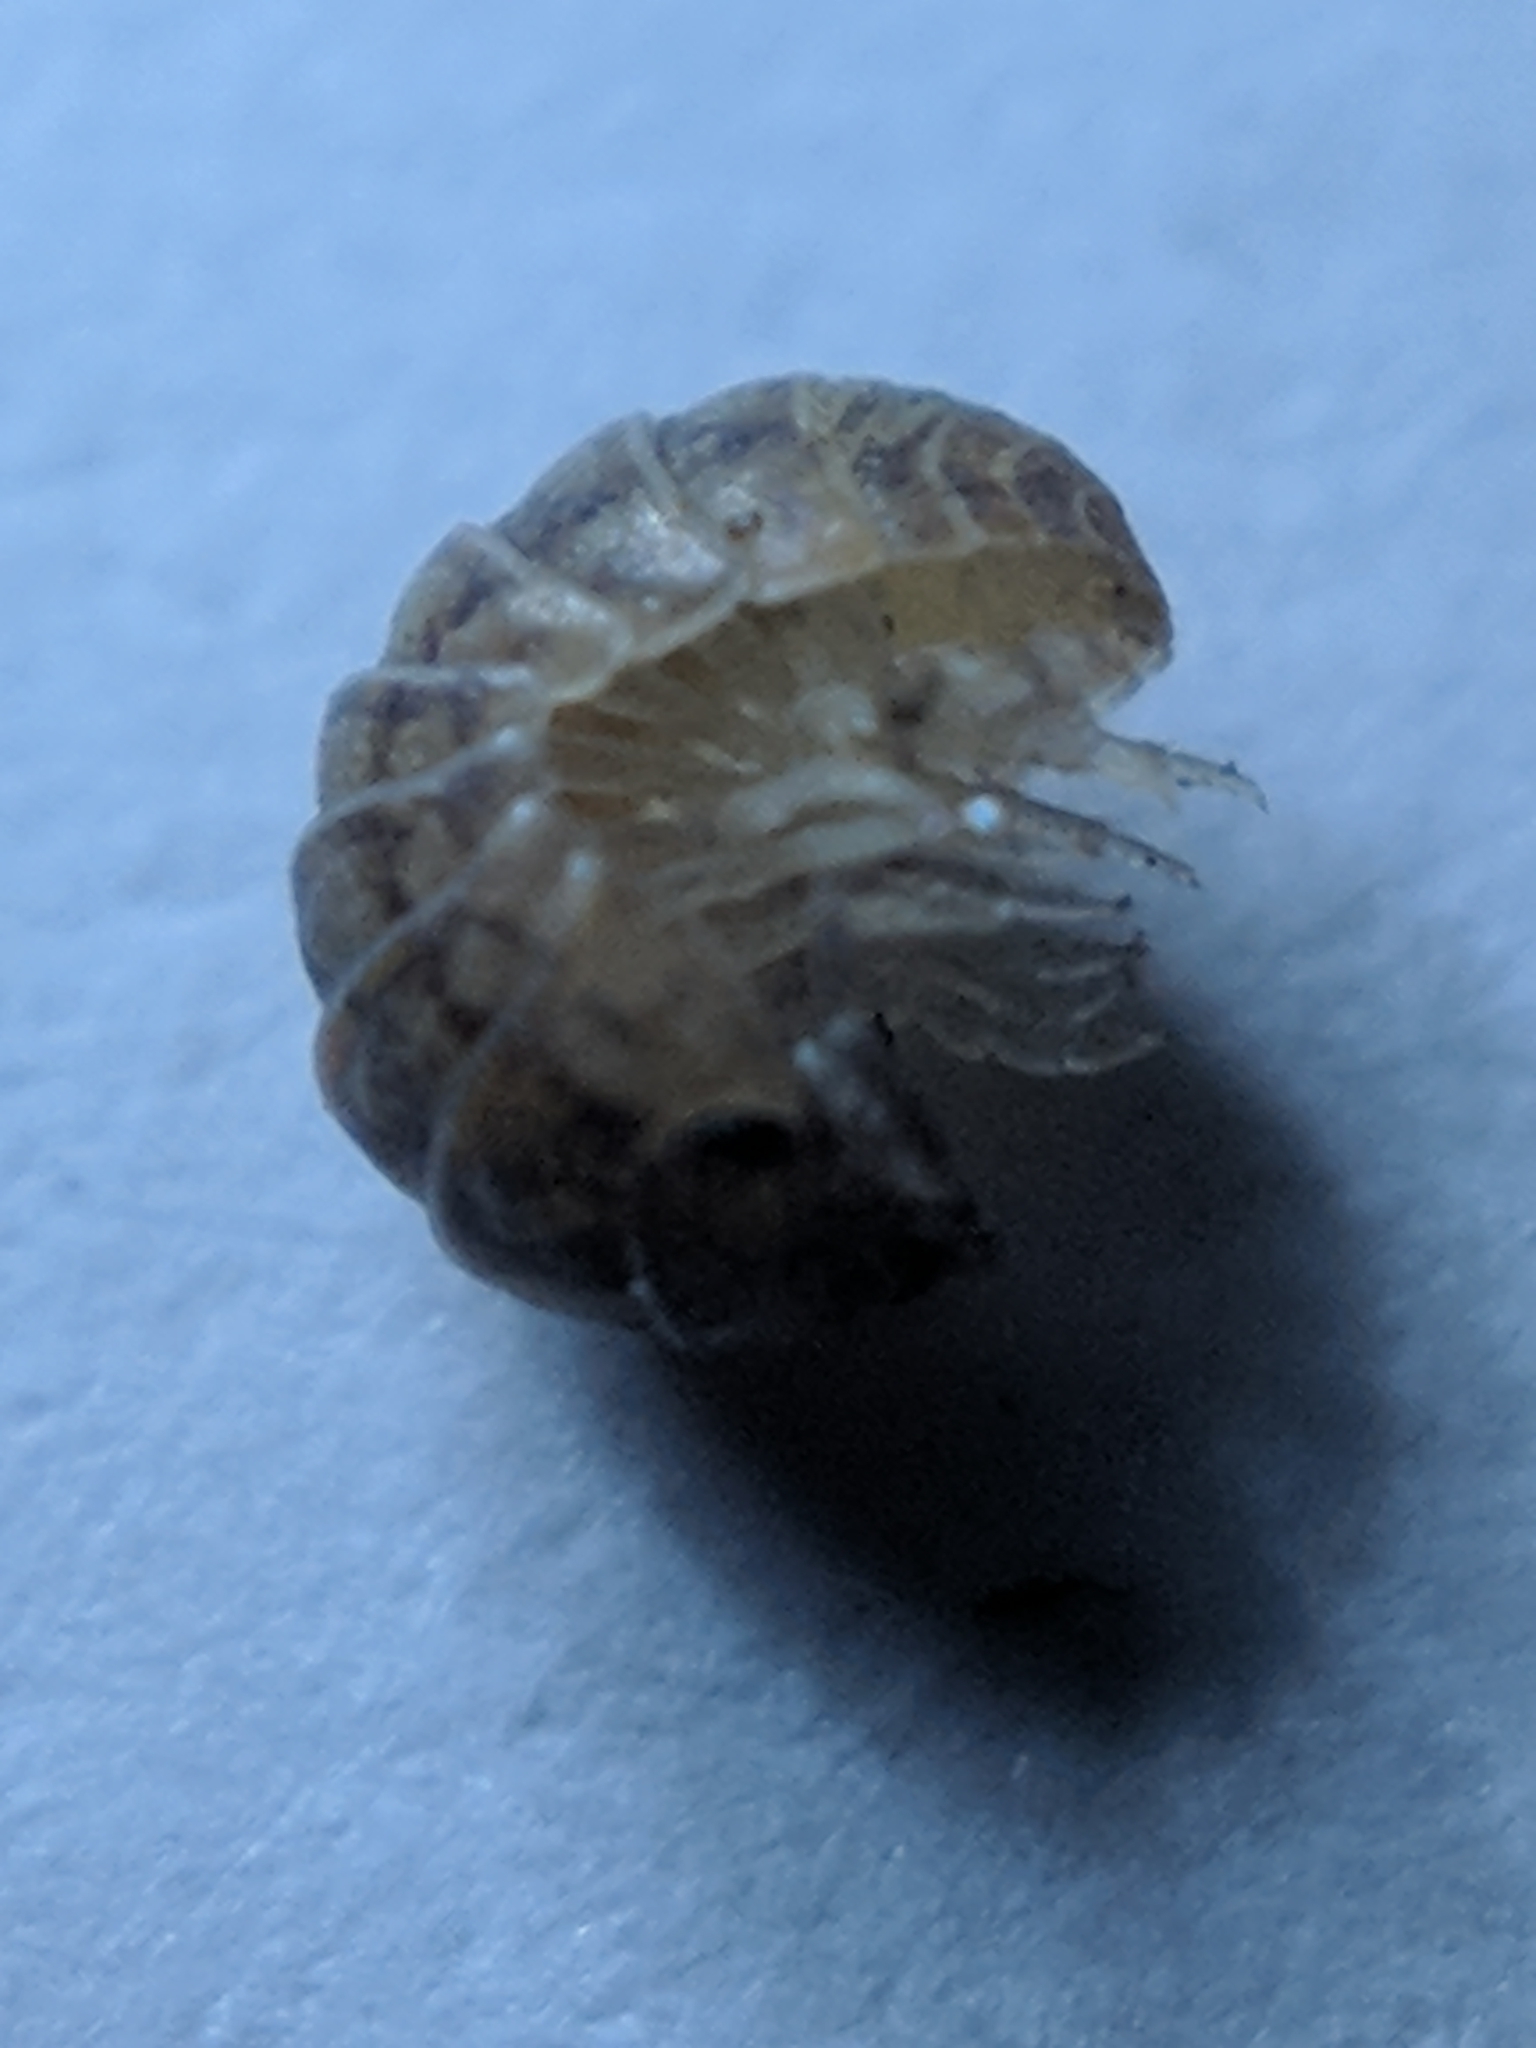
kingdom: Animalia
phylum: Arthropoda
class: Malacostraca
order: Isopoda
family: Armadillidiidae
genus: Armadillidium
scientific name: Armadillidium vulgare
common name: Common pill woodlouse
